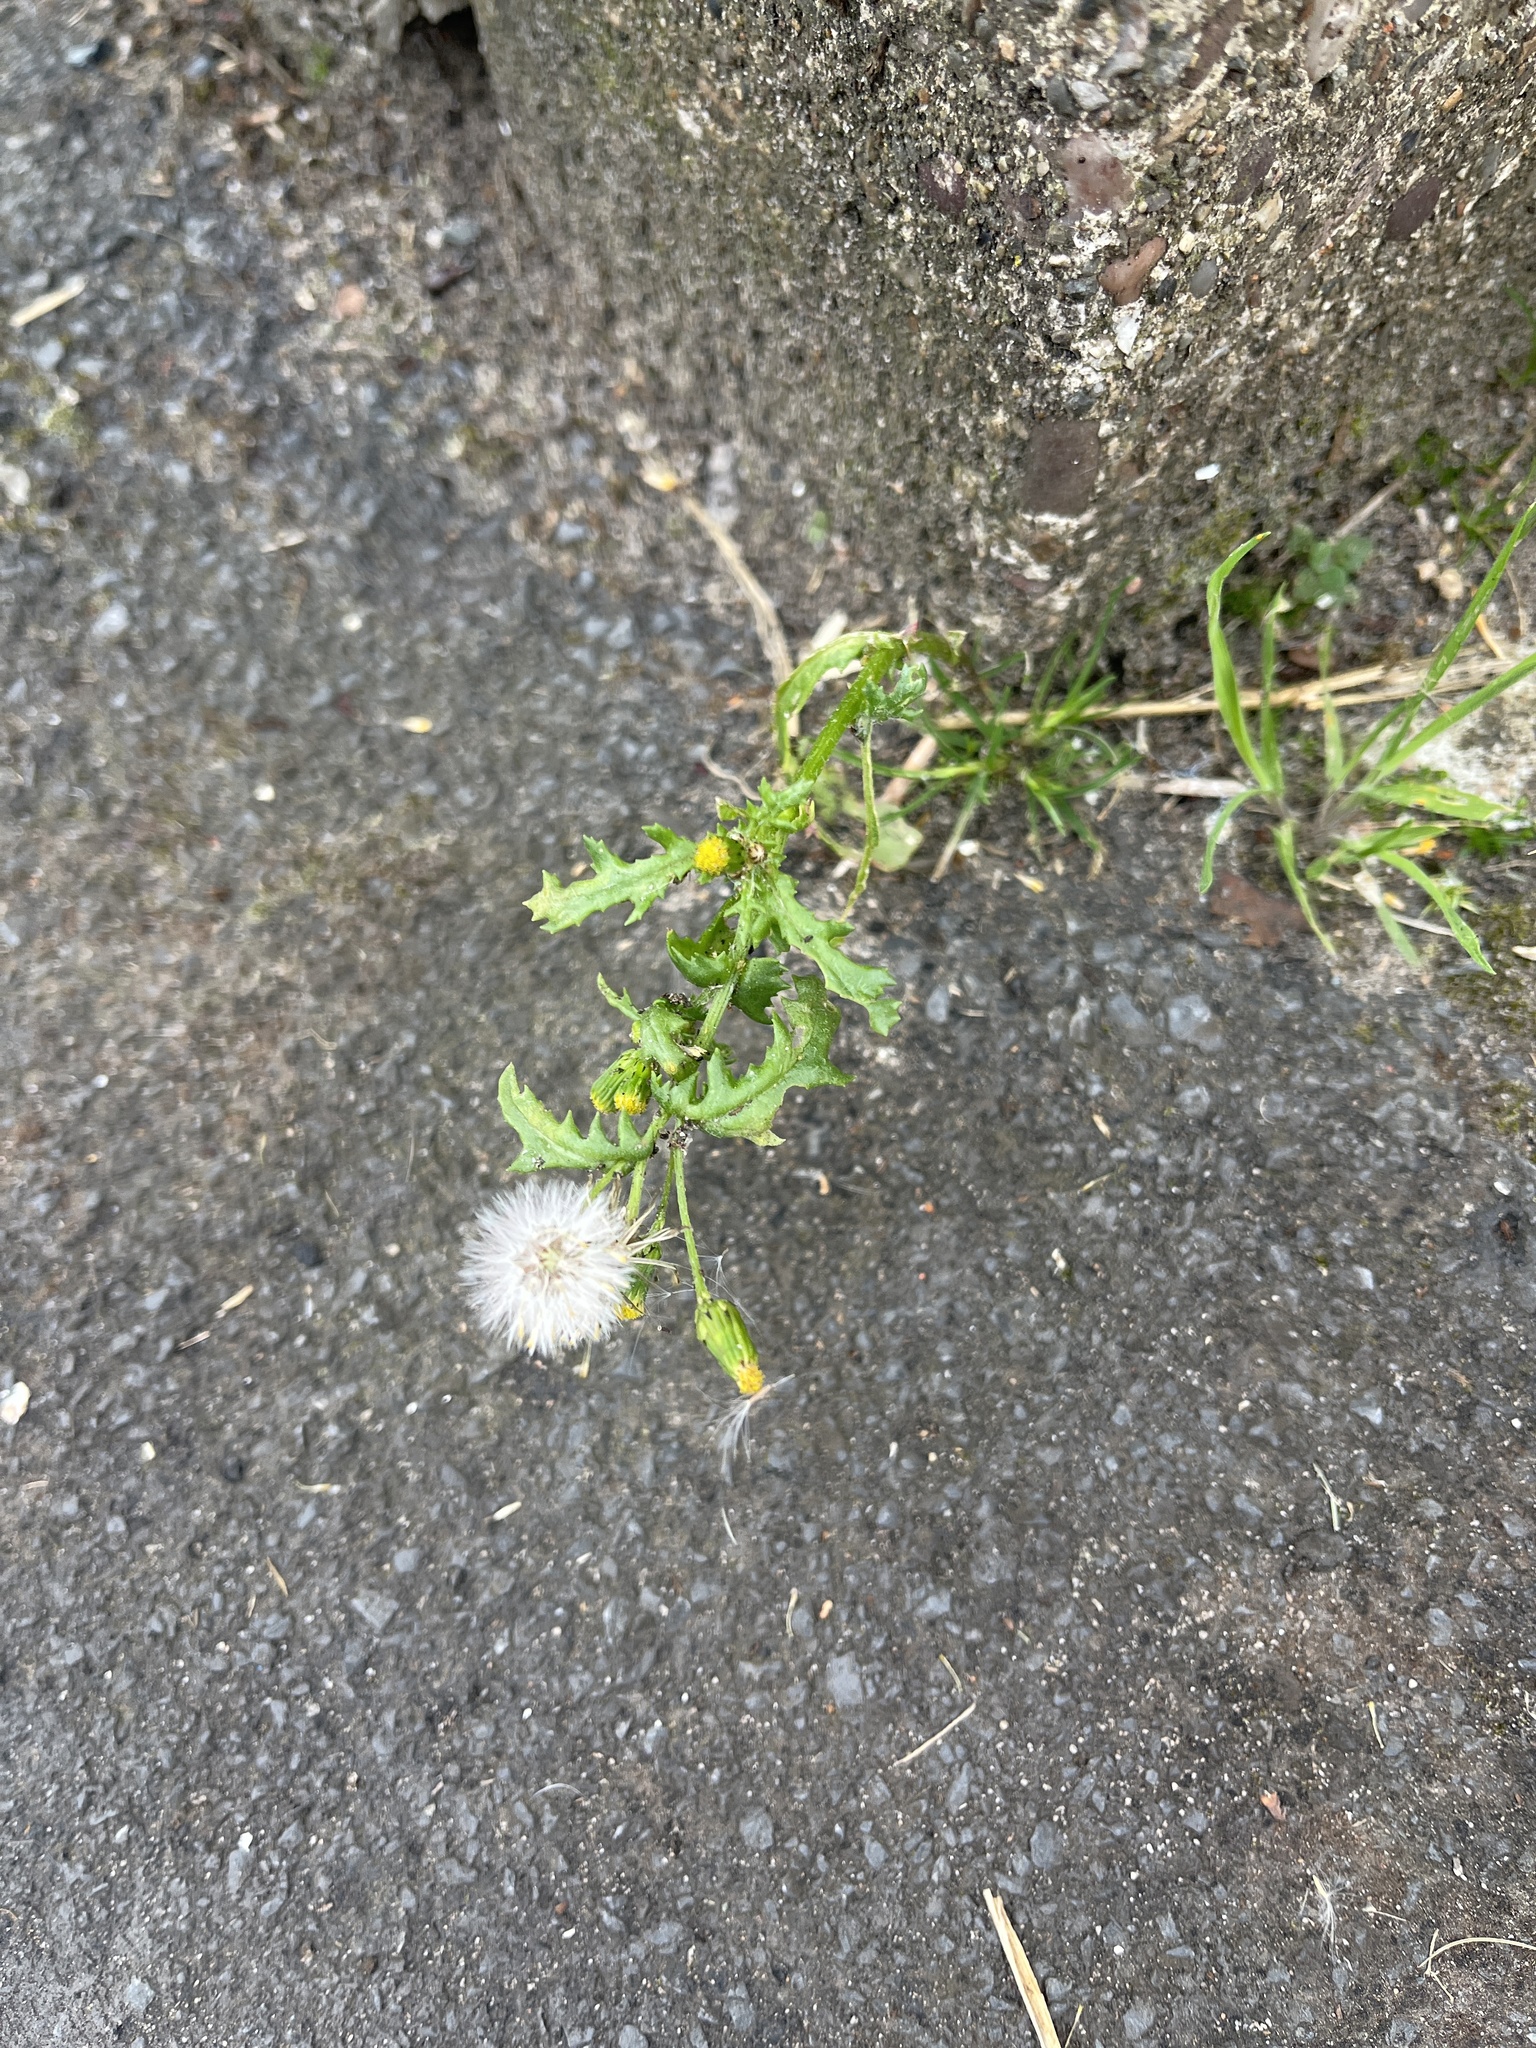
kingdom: Plantae
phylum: Tracheophyta
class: Magnoliopsida
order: Asterales
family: Asteraceae
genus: Senecio
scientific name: Senecio vulgaris
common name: Old-man-in-the-spring
